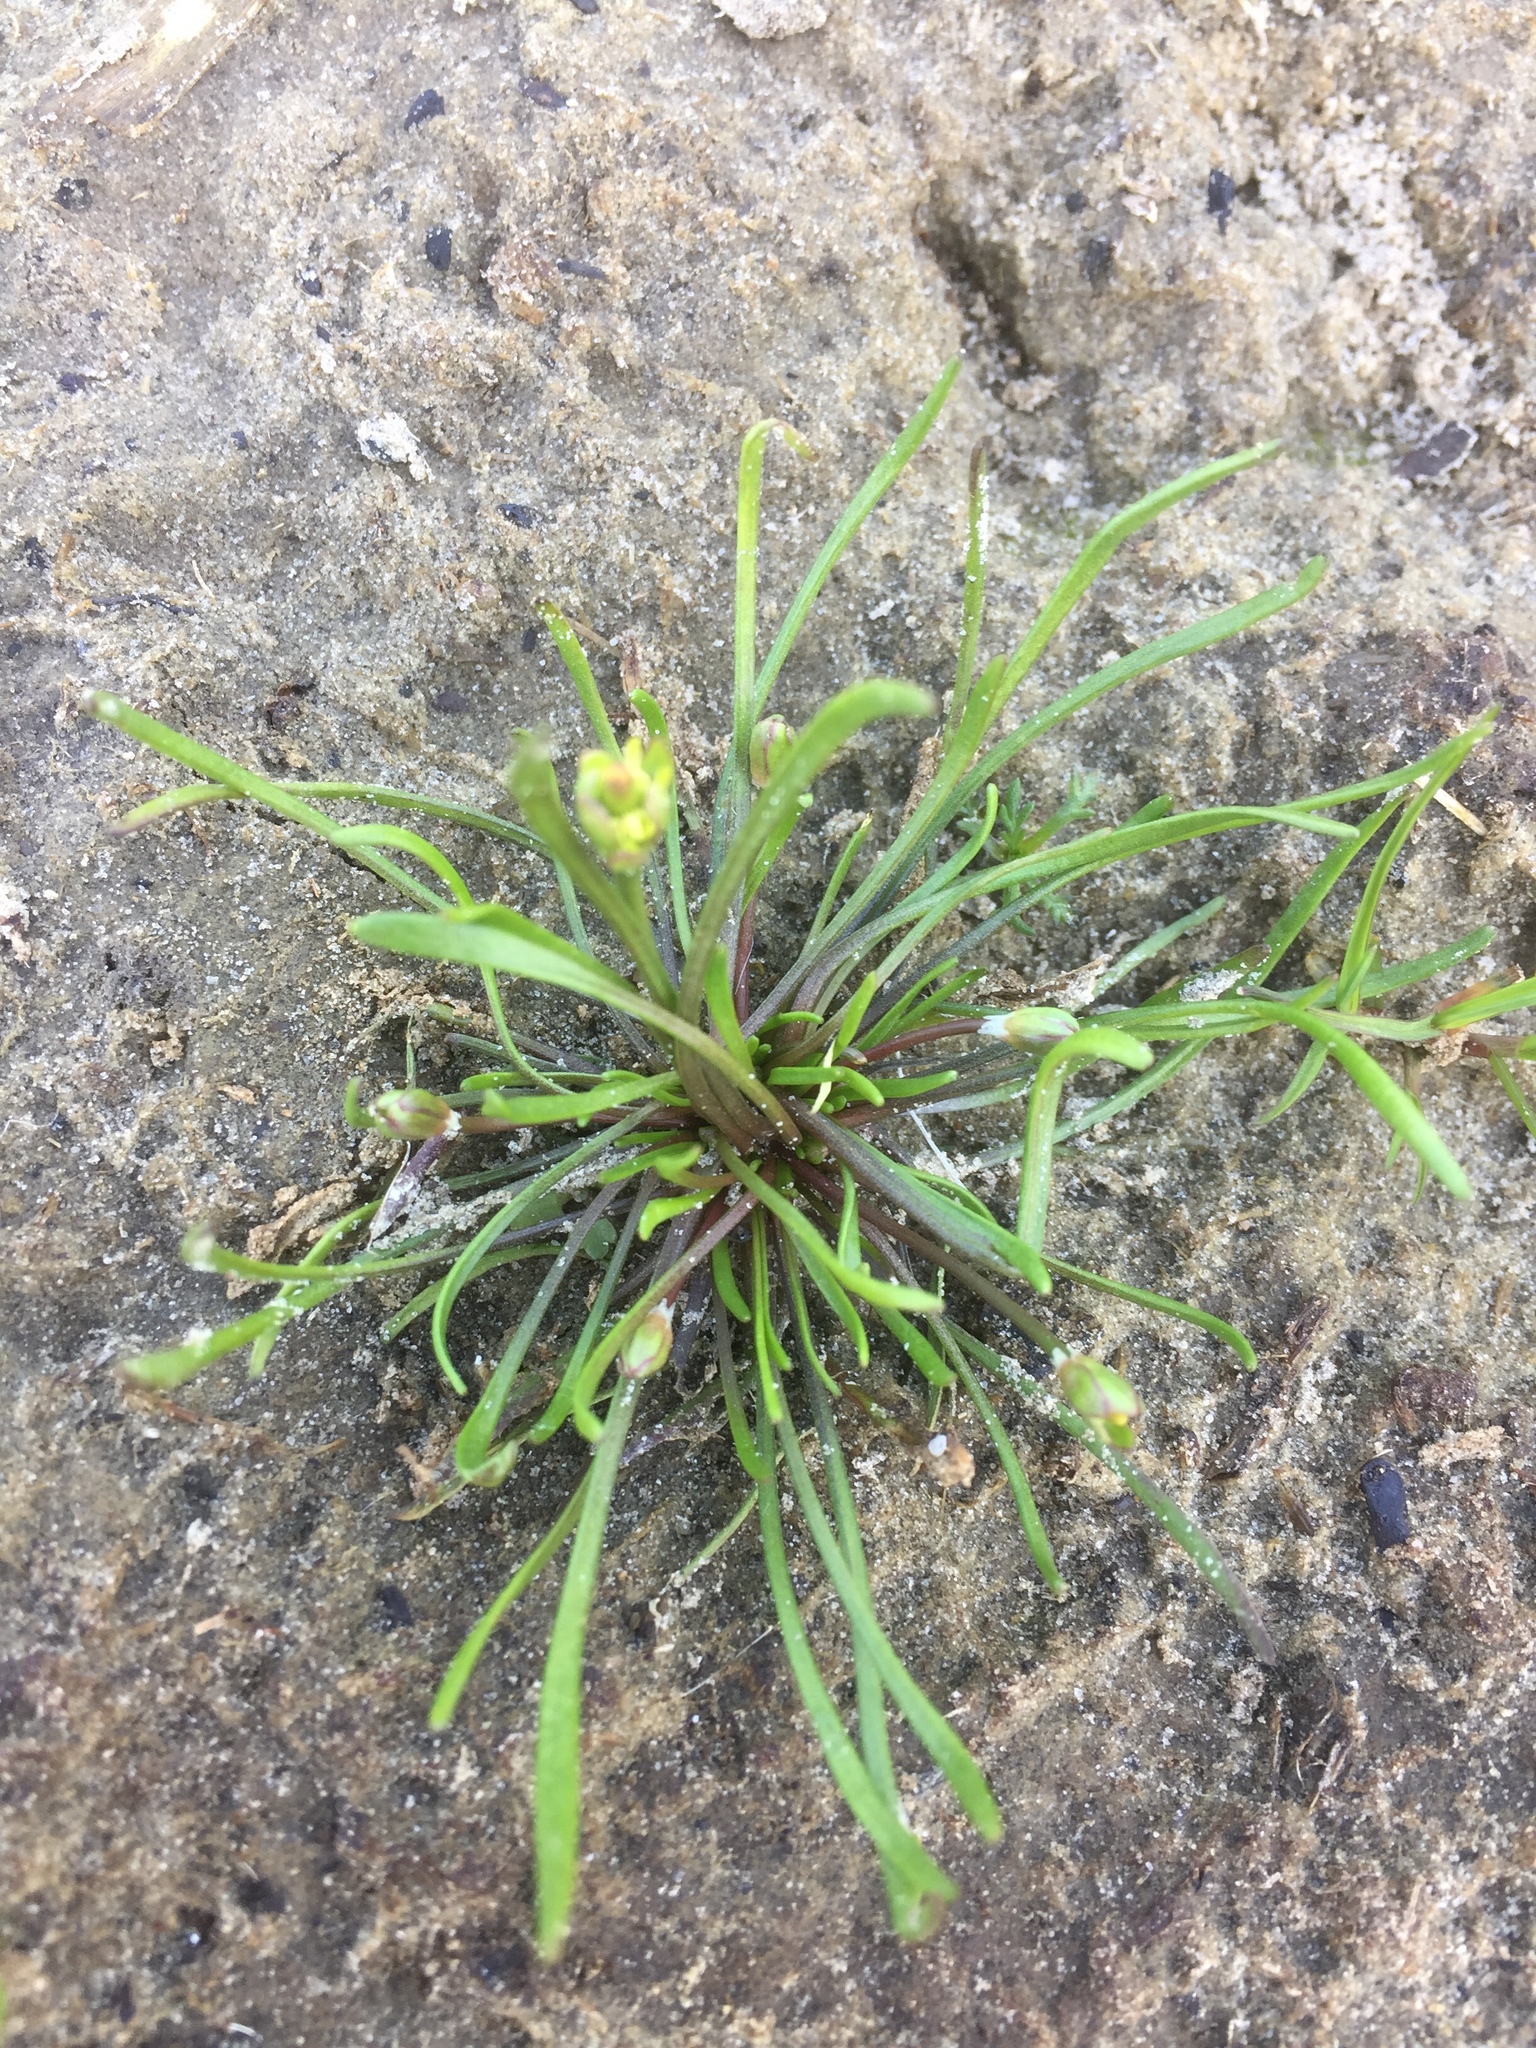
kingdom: Plantae
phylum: Tracheophyta
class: Magnoliopsida
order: Ranunculales
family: Ranunculaceae
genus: Myosurus
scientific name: Myosurus minimus
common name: Mousetail
